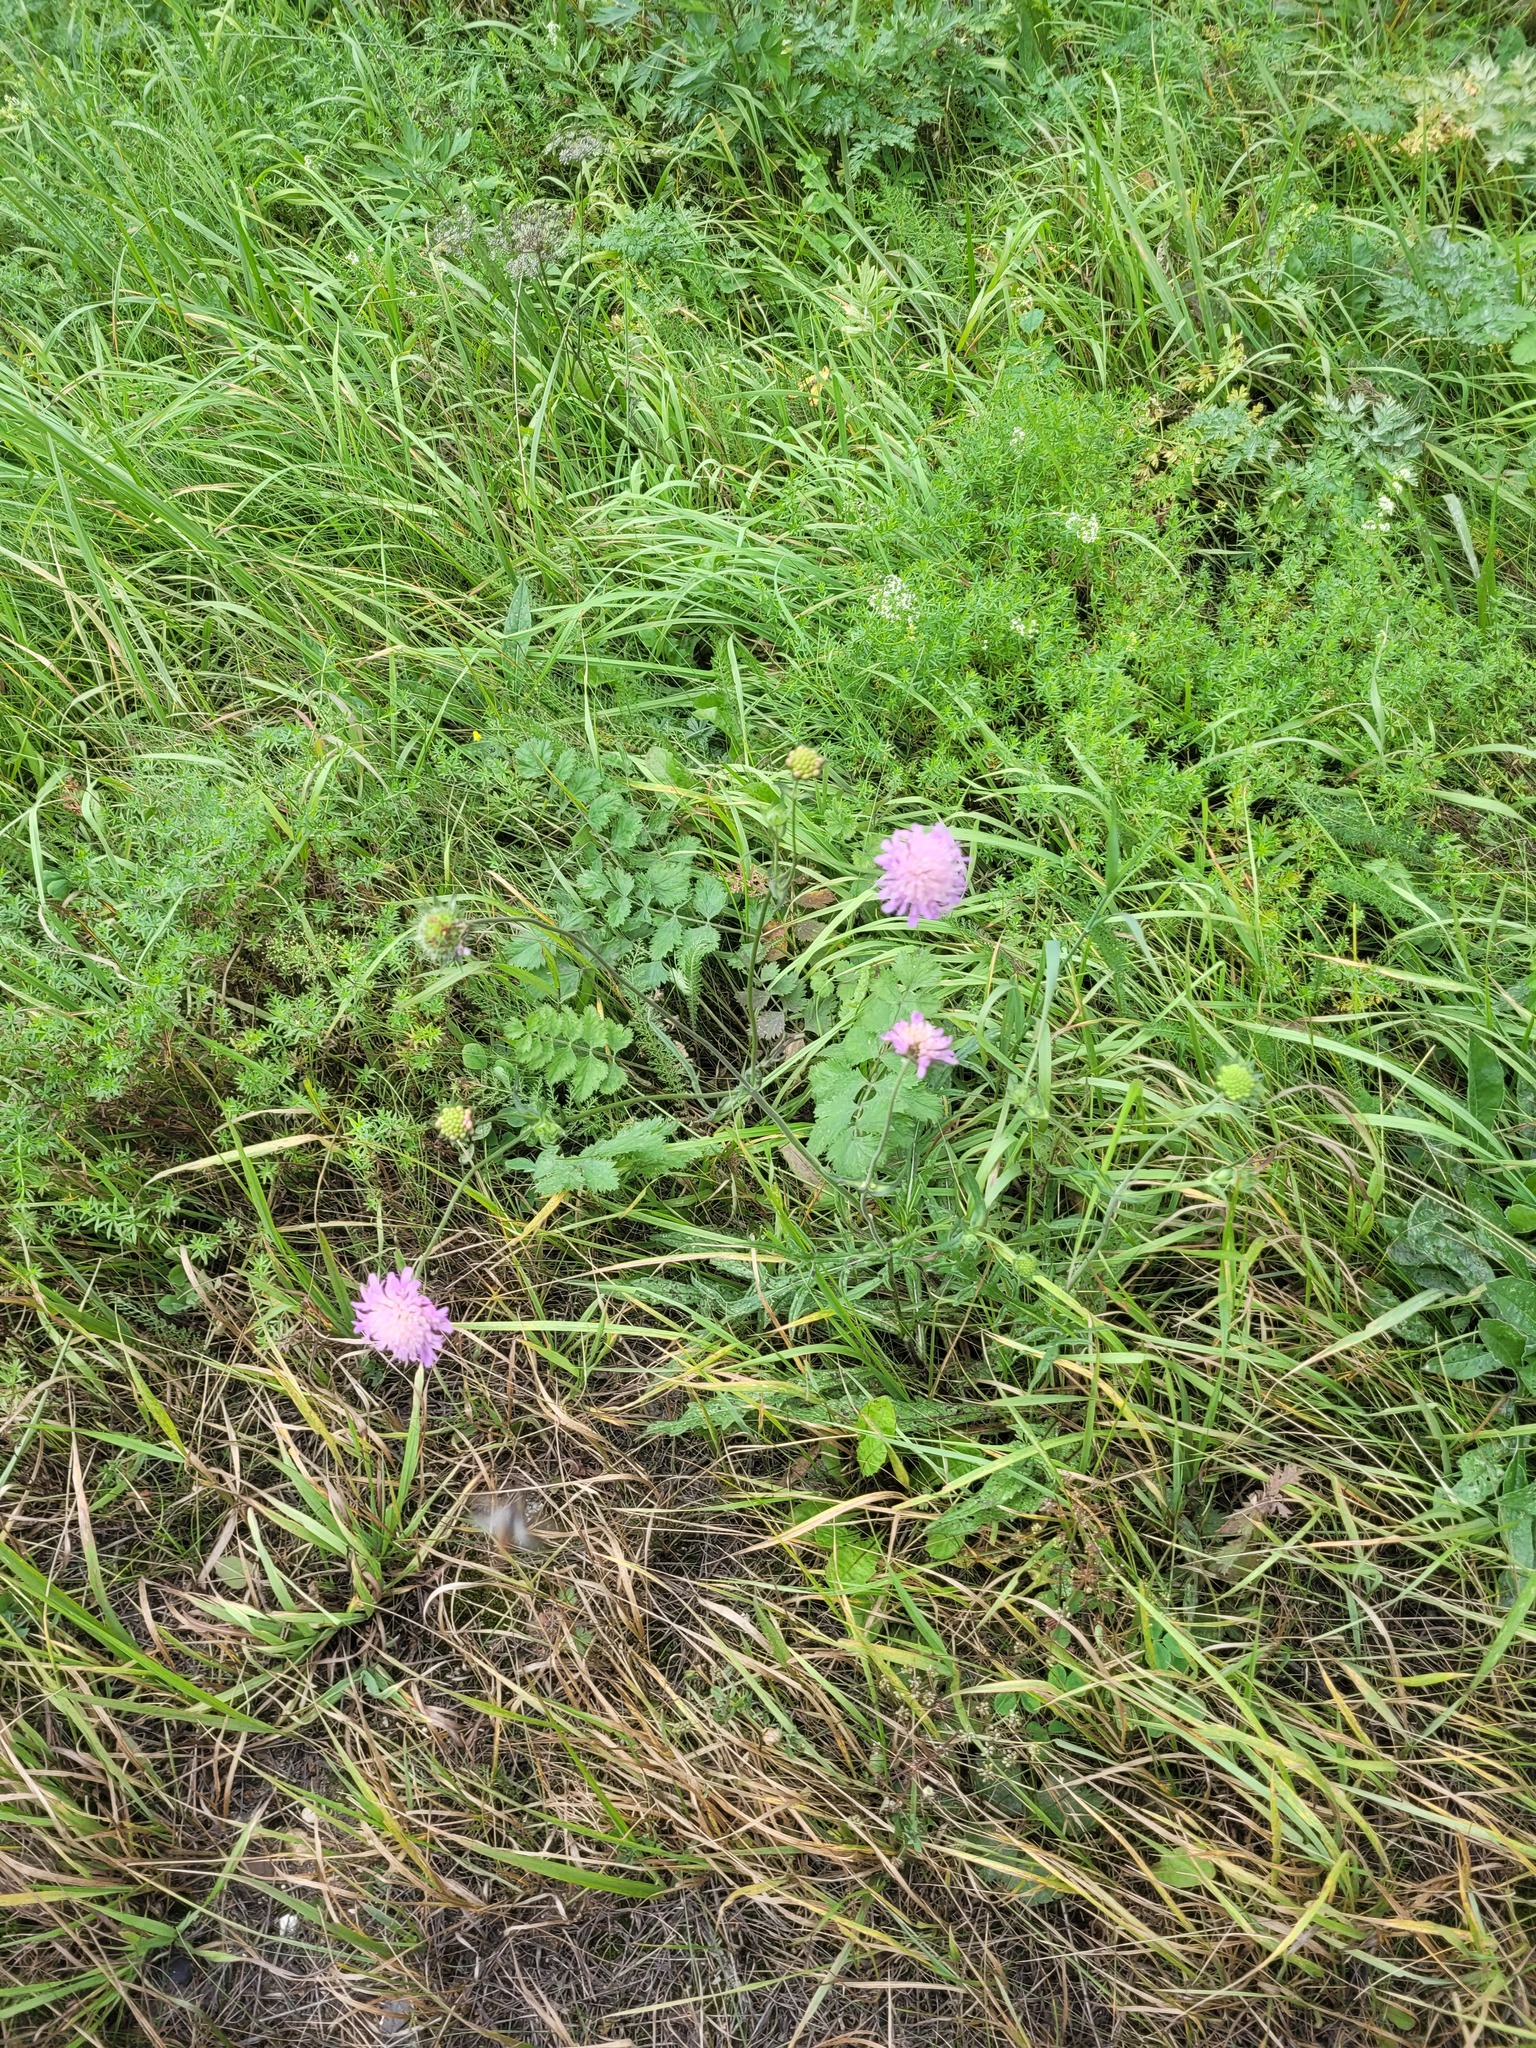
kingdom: Plantae
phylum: Tracheophyta
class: Magnoliopsida
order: Dipsacales
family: Caprifoliaceae
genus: Knautia
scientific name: Knautia arvensis
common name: Field scabiosa
